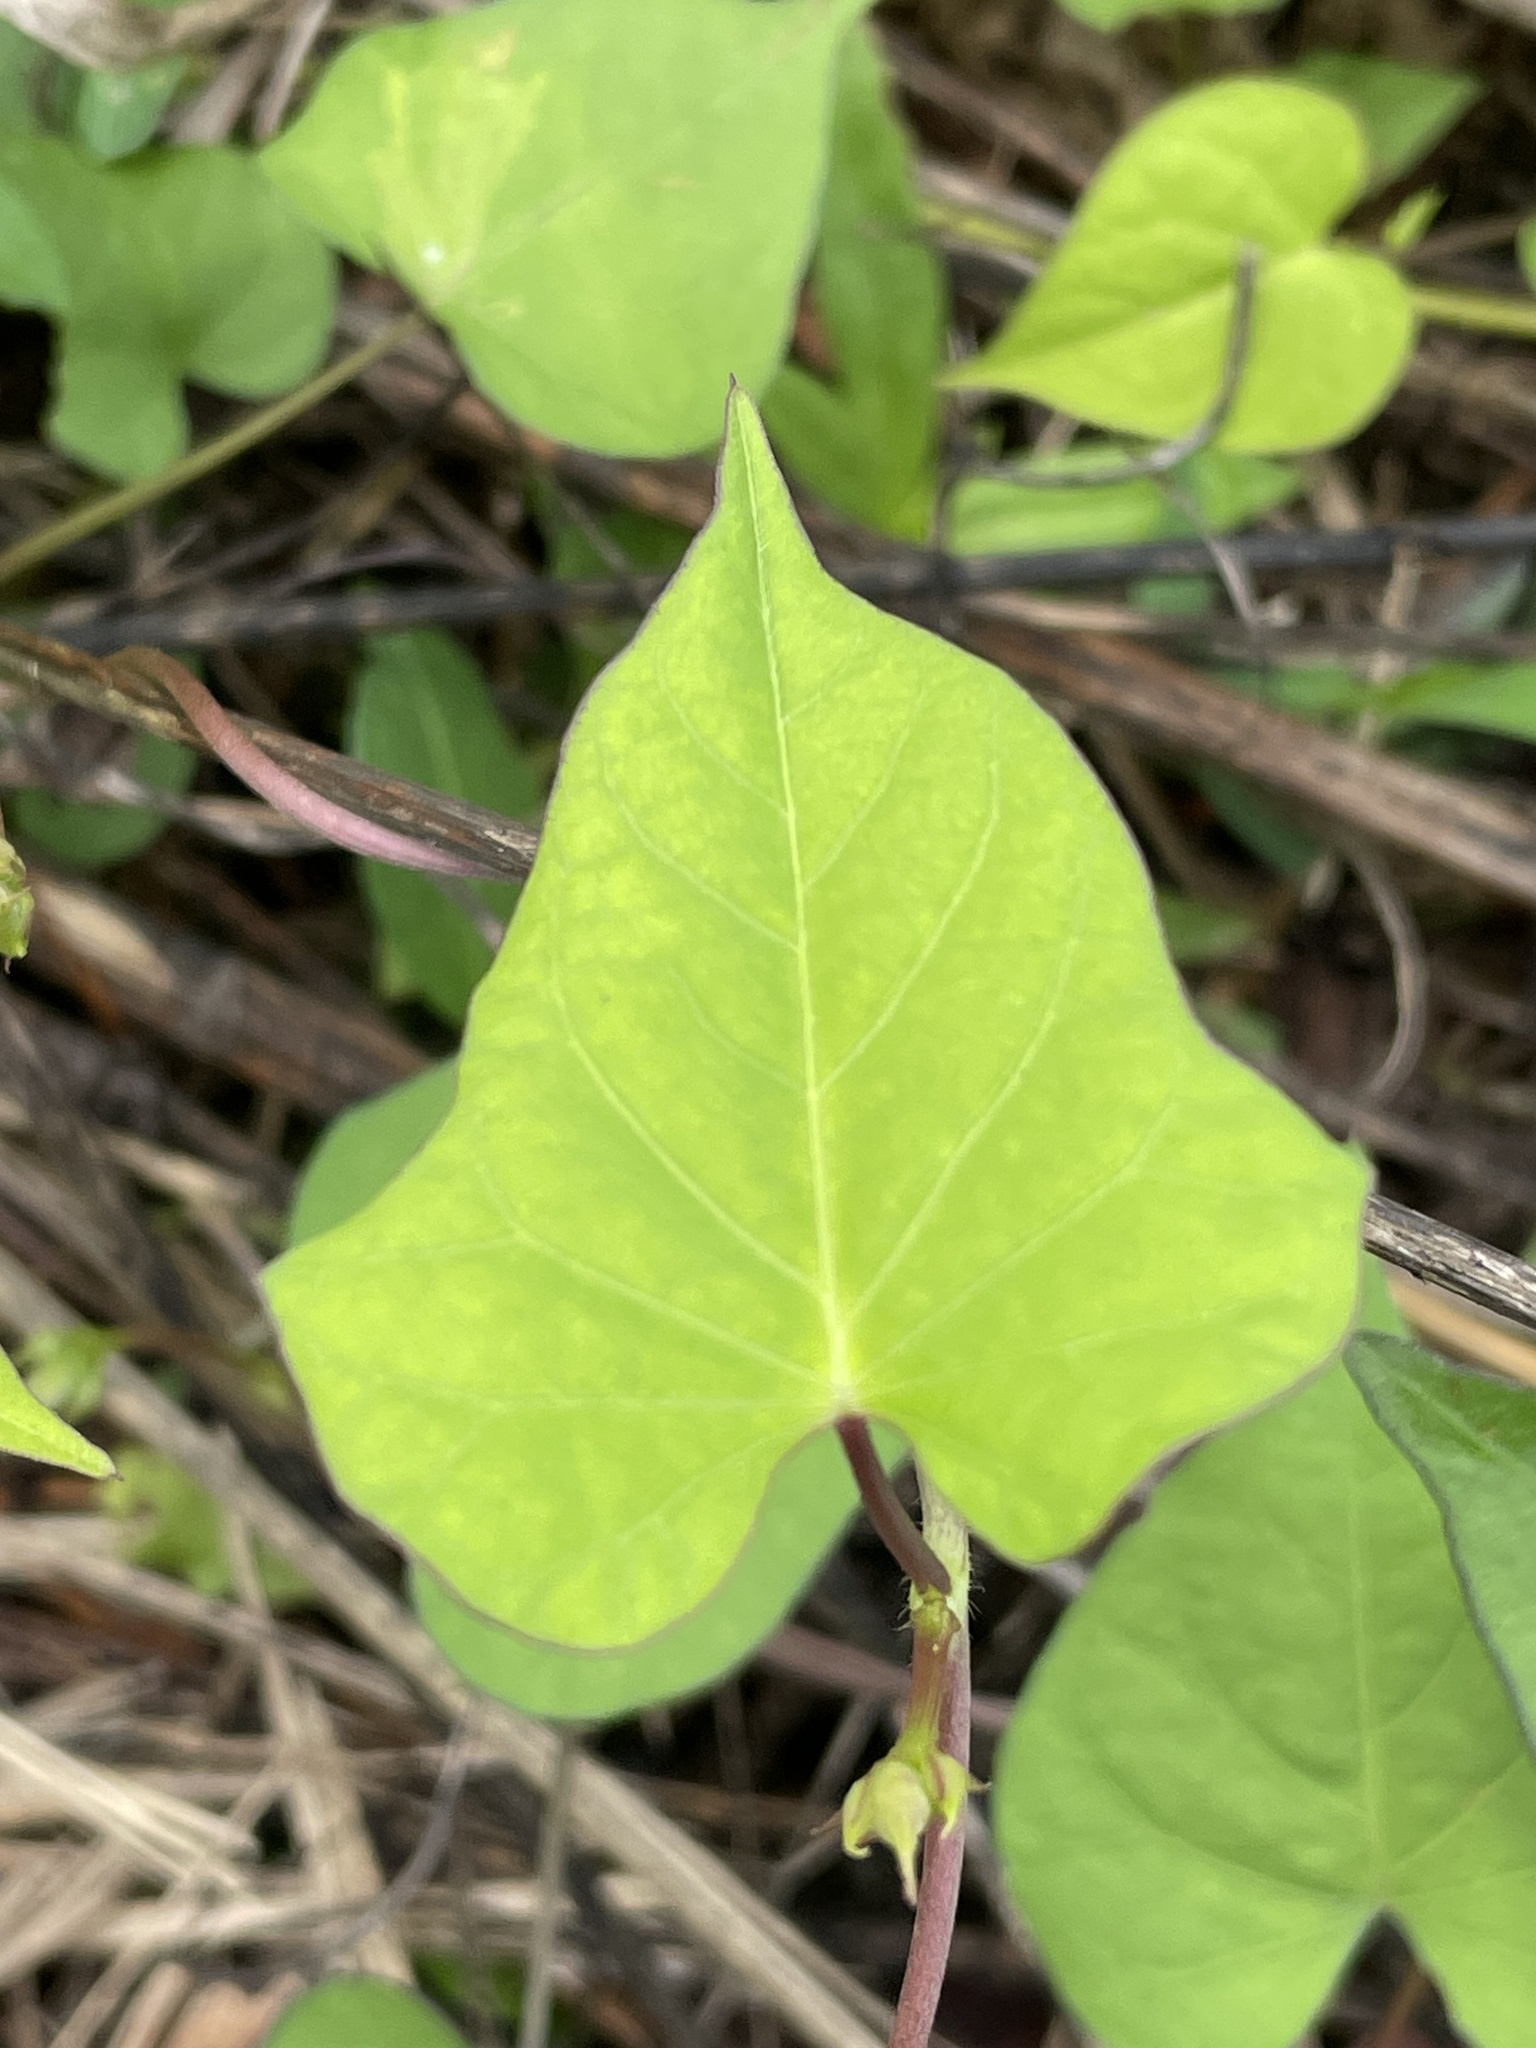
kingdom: Plantae
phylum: Tracheophyta
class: Magnoliopsida
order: Solanales
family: Convolvulaceae
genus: Ipomoea
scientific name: Ipomoea triloba
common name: Little-bell
